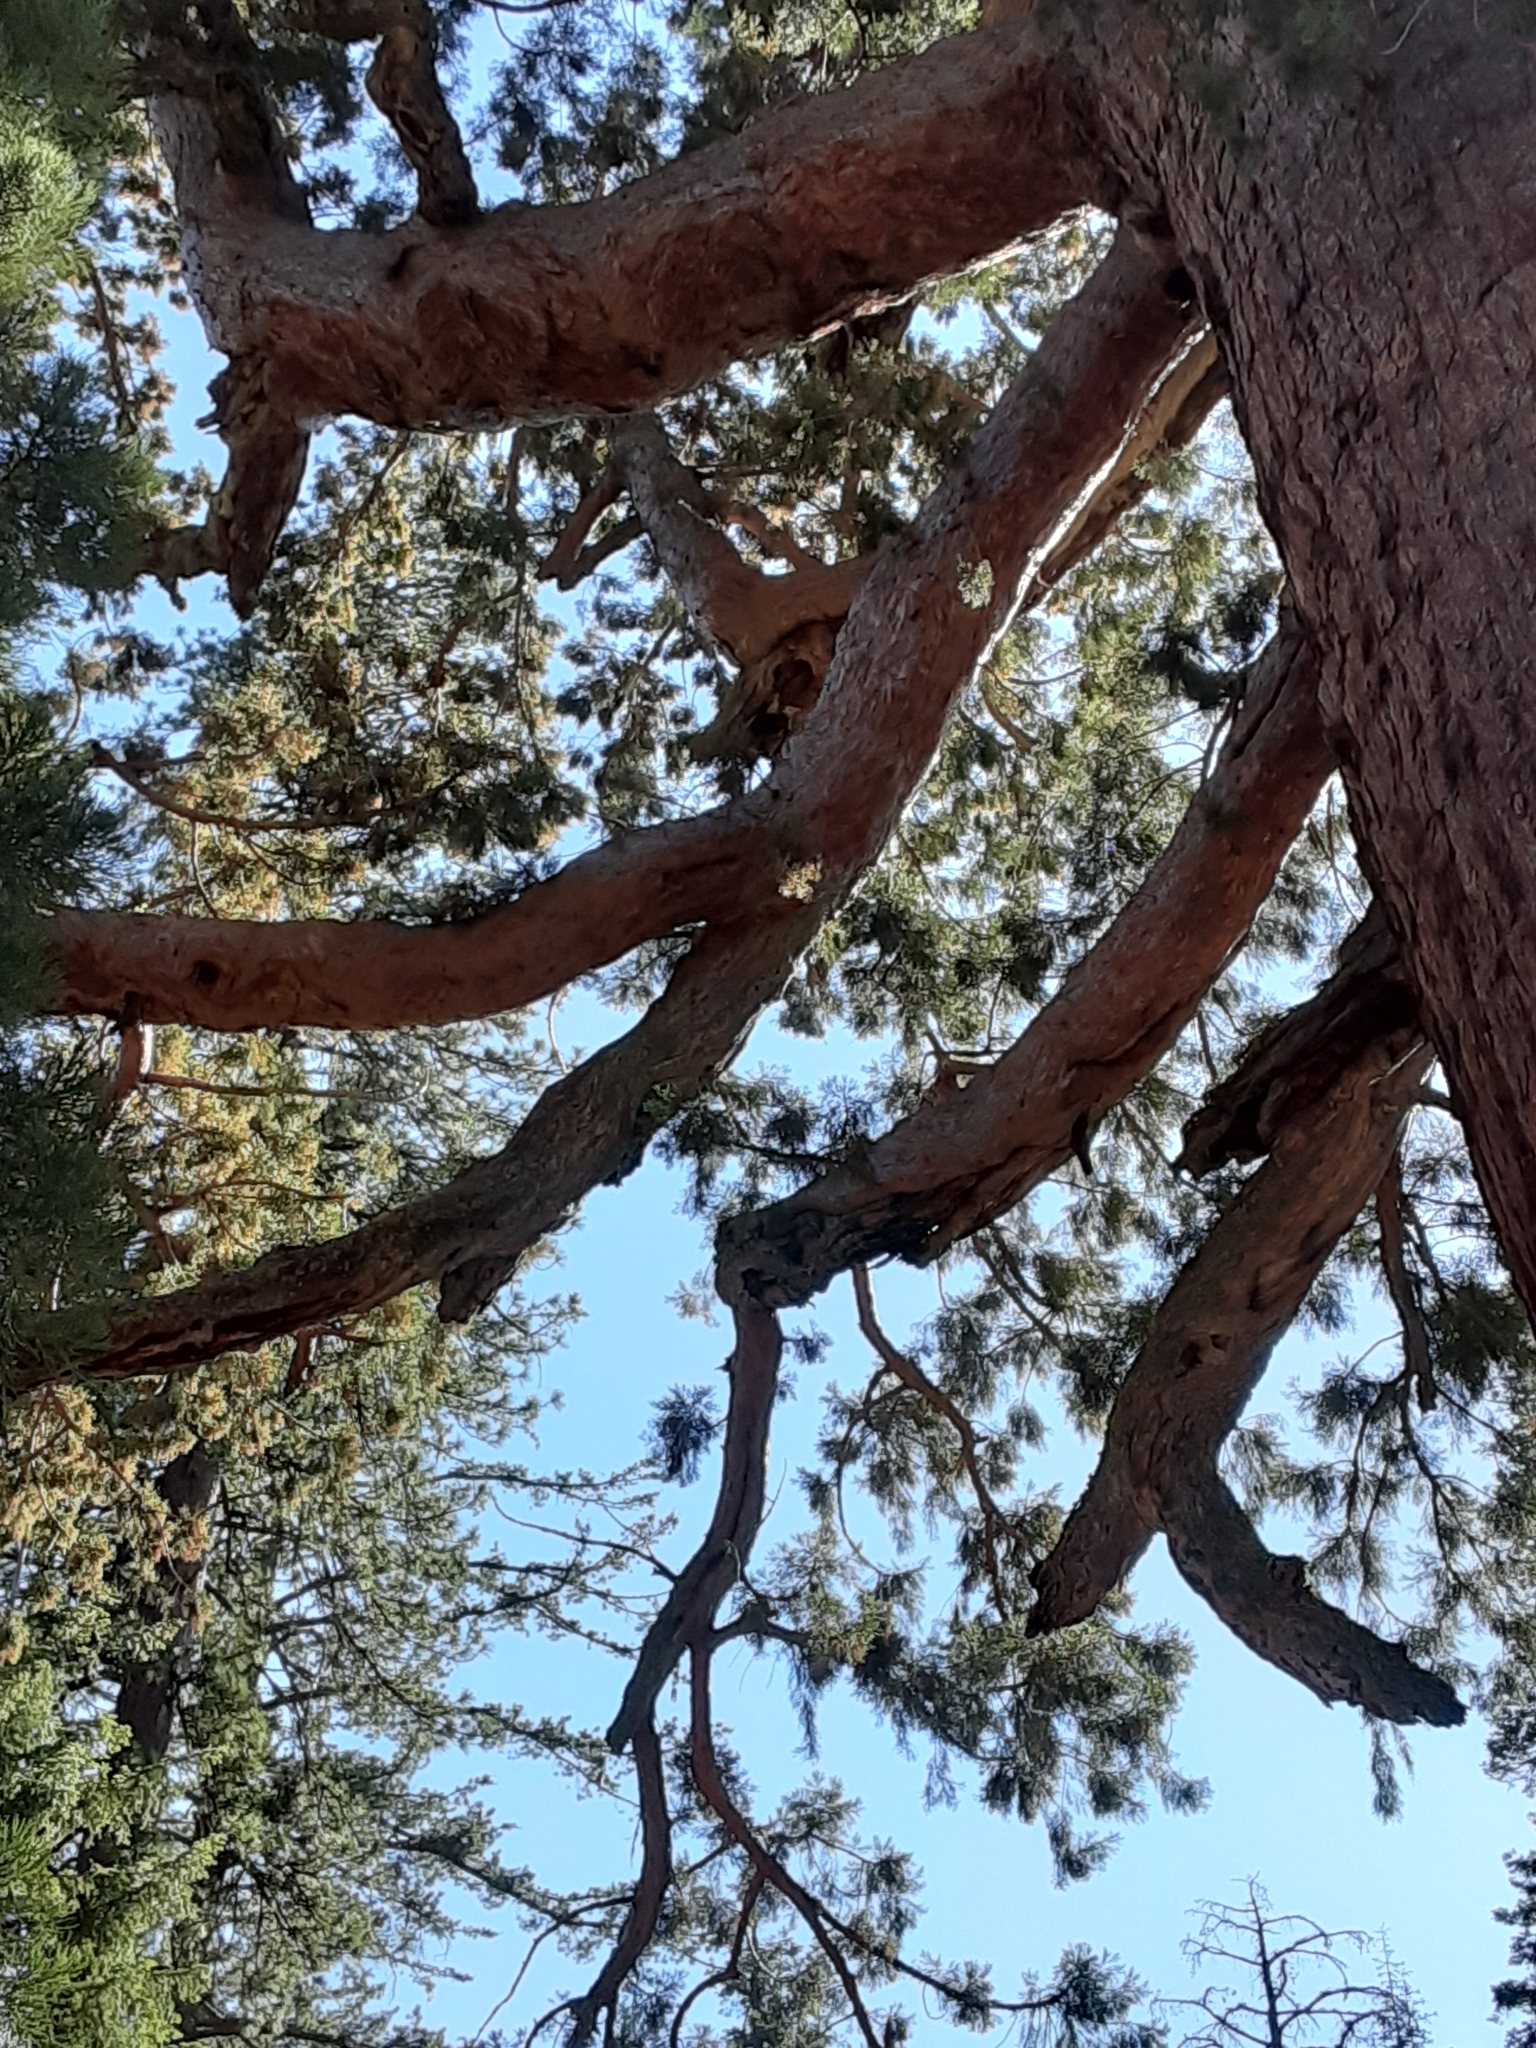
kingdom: Plantae
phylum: Tracheophyta
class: Pinopsida
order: Pinales
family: Cupressaceae
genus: Sequoiadendron
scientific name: Sequoiadendron giganteum
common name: Wellingtonia
